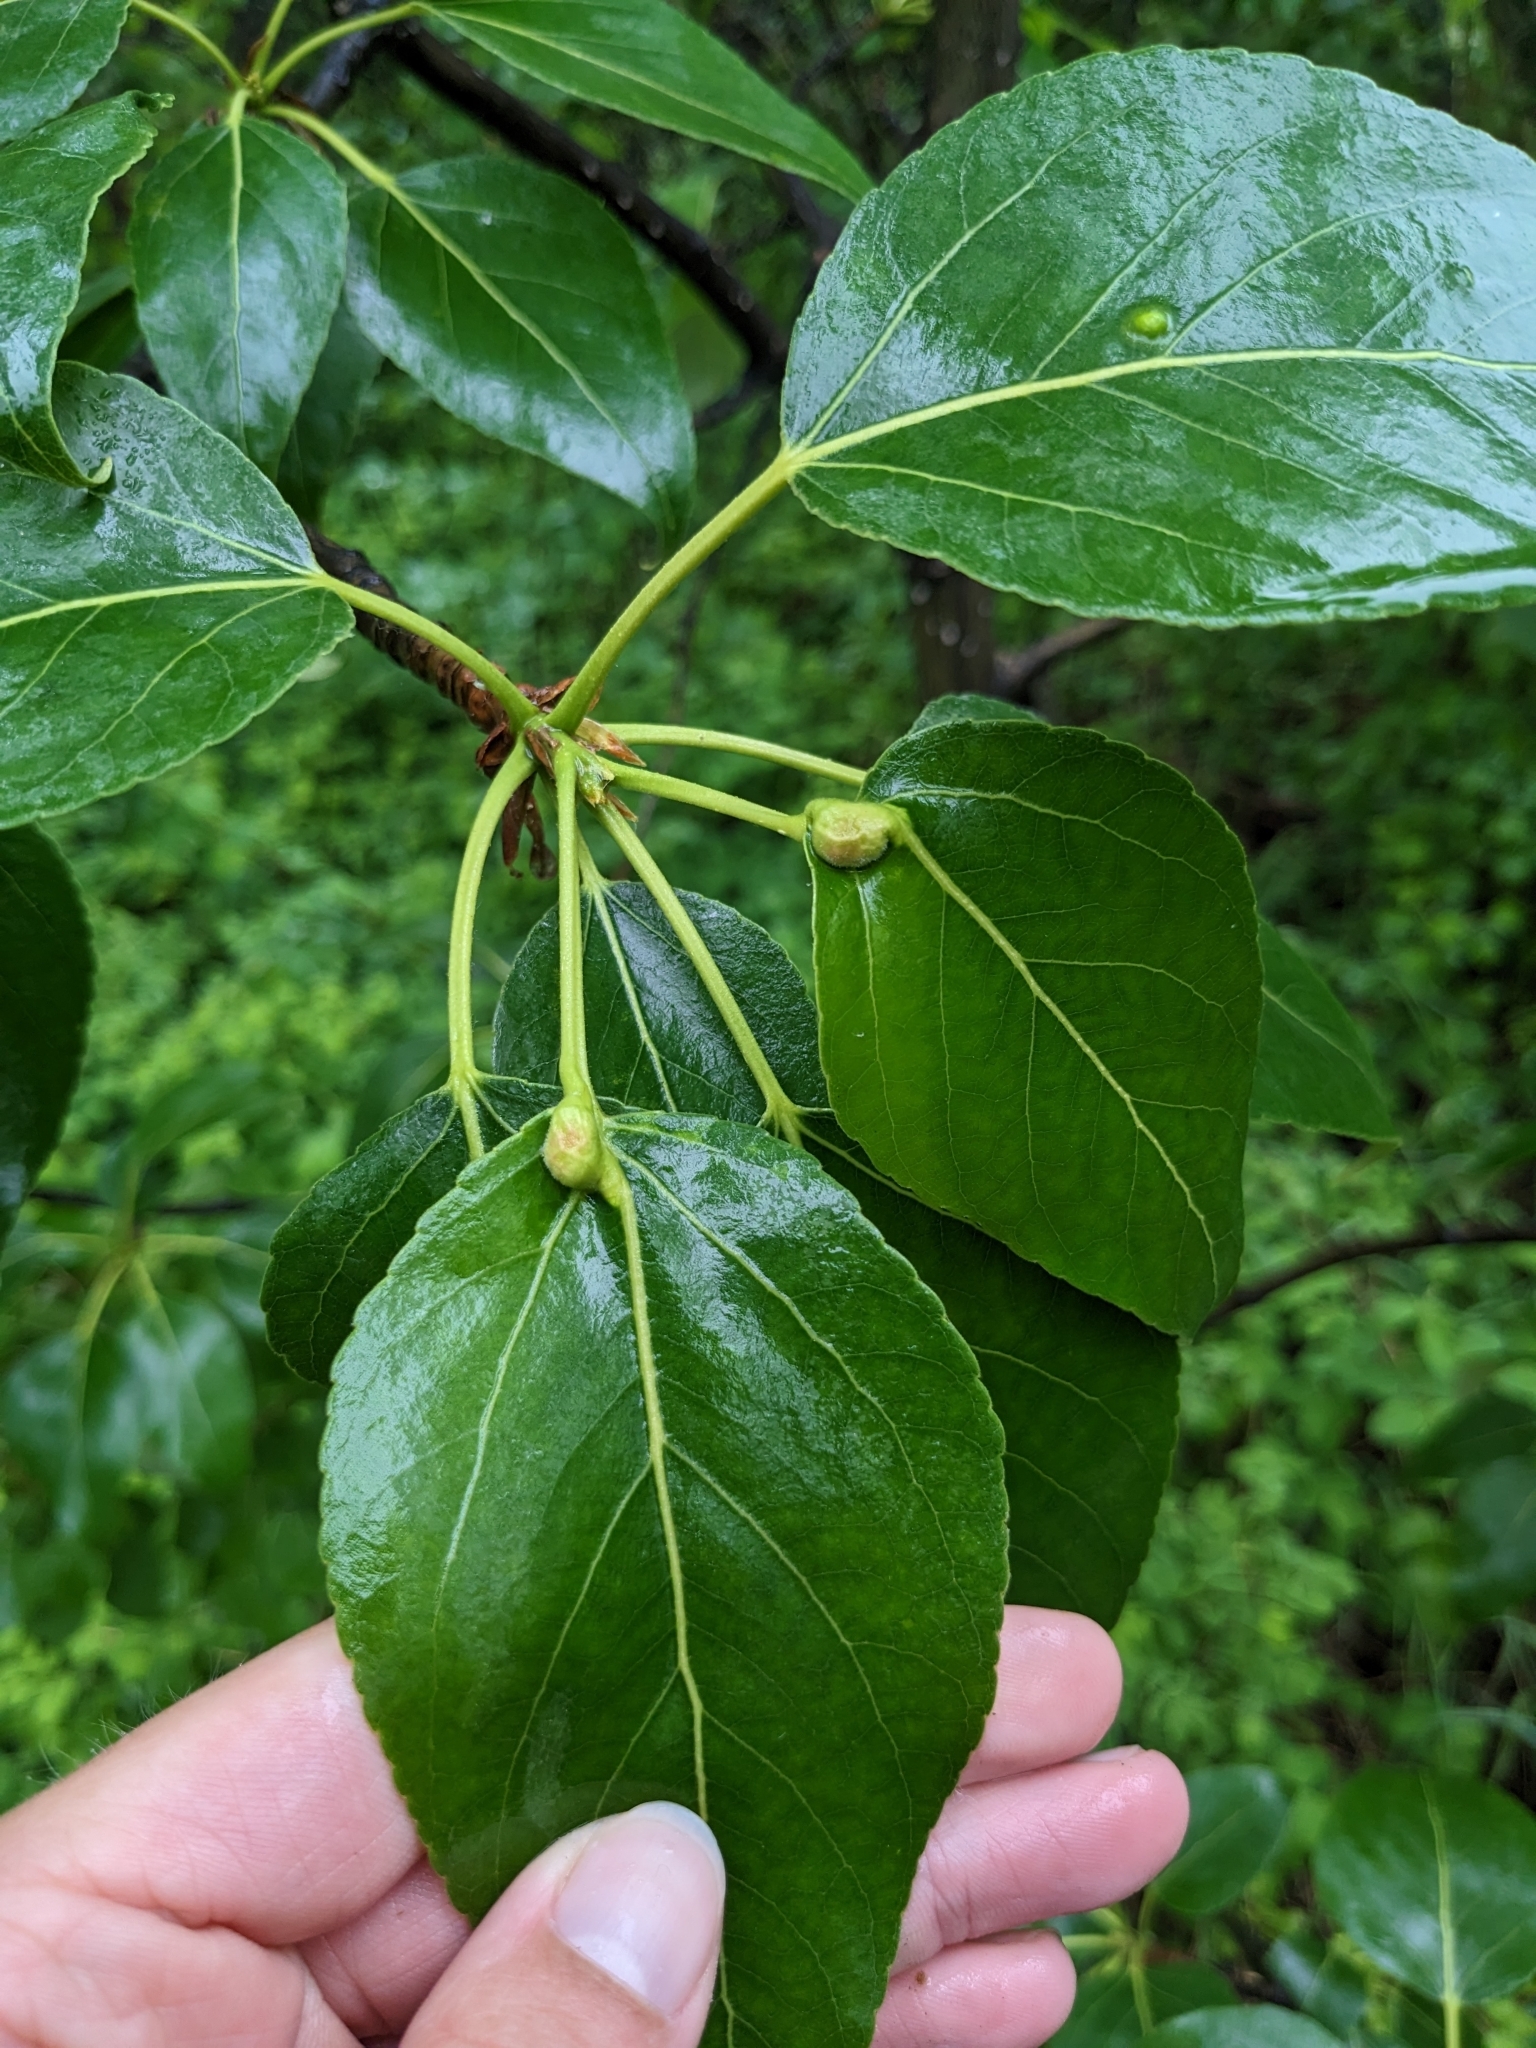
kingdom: Plantae
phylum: Tracheophyta
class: Magnoliopsida
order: Malpighiales
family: Salicaceae
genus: Populus
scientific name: Populus balsamifera
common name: Balsam poplar
